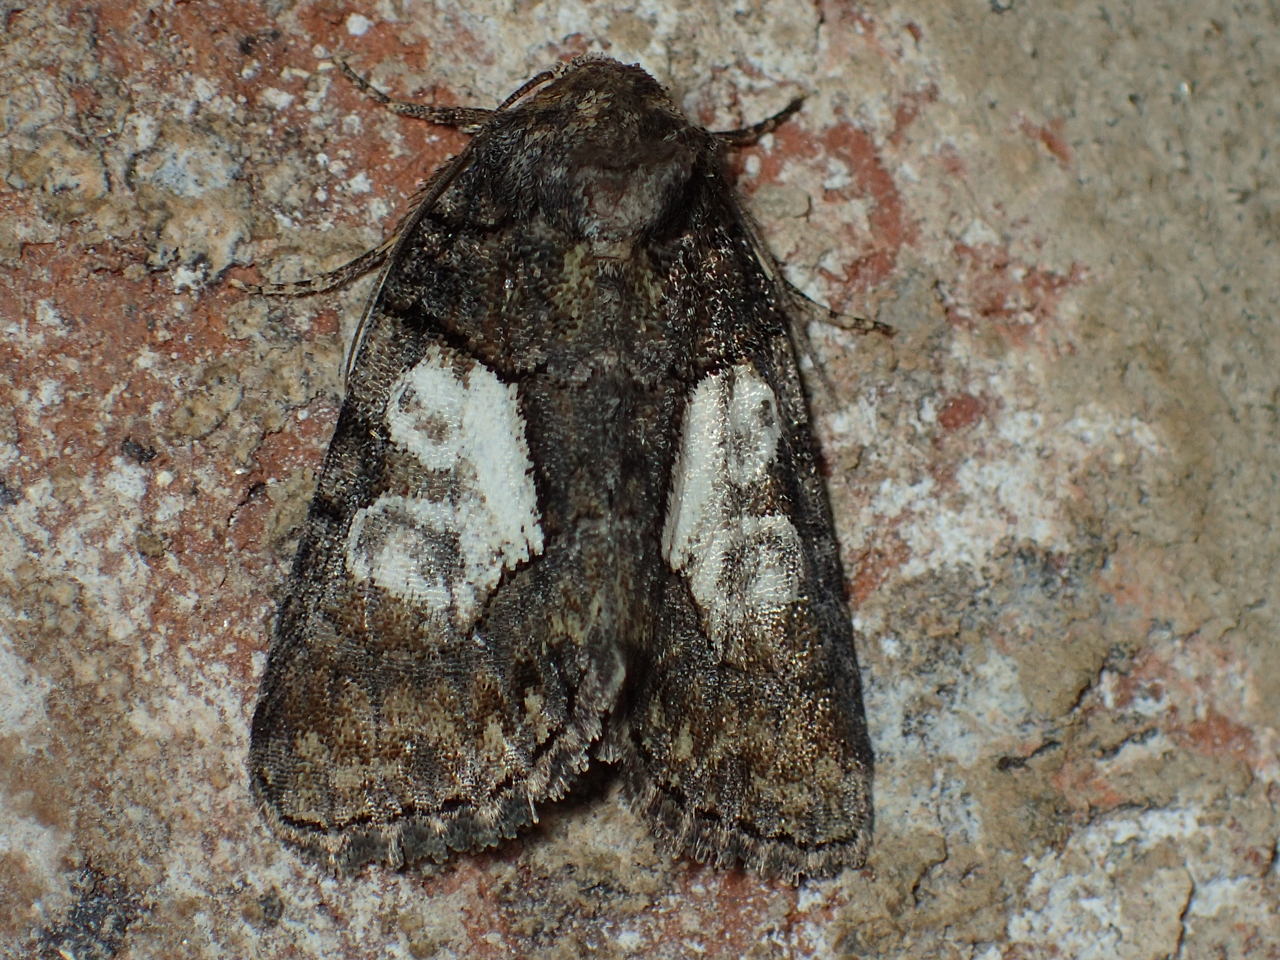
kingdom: Animalia
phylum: Arthropoda
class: Insecta
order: Lepidoptera
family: Noctuidae
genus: Chytonix
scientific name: Chytonix palliatricula
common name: Cloaked marvel
